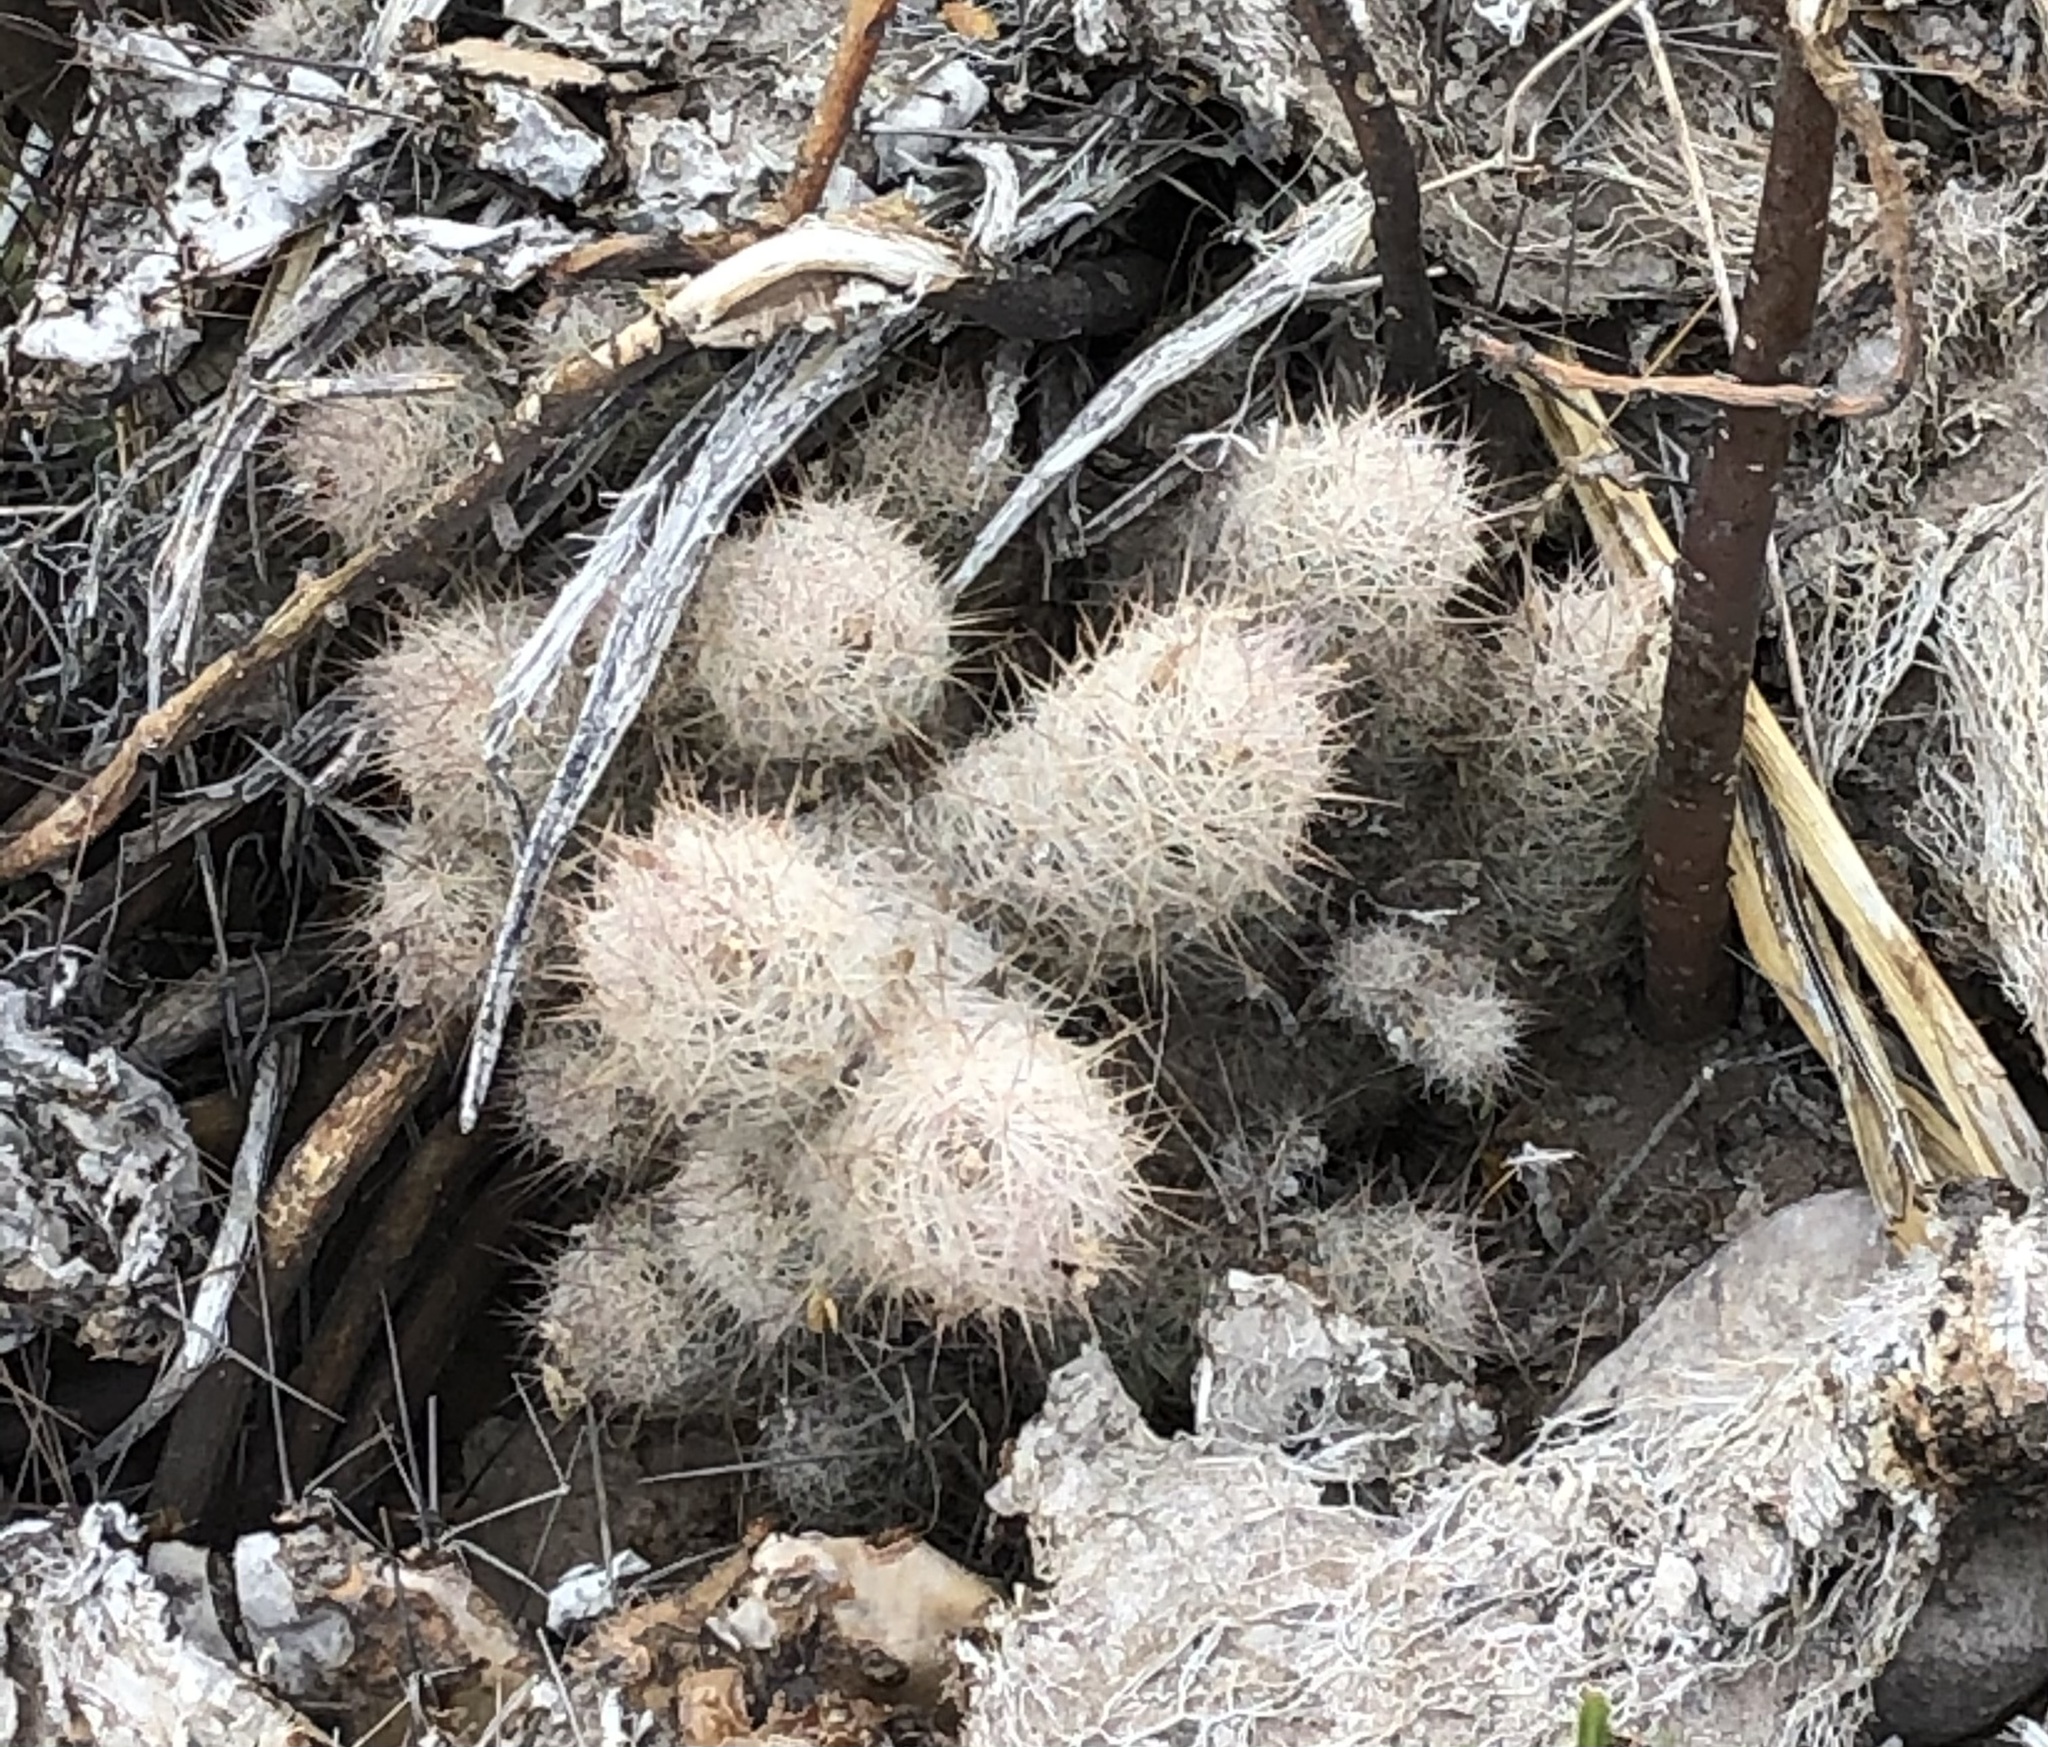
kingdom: Plantae
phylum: Tracheophyta
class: Magnoliopsida
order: Caryophyllales
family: Cactaceae
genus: Pelecyphora
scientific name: Pelecyphora tuberculosa
